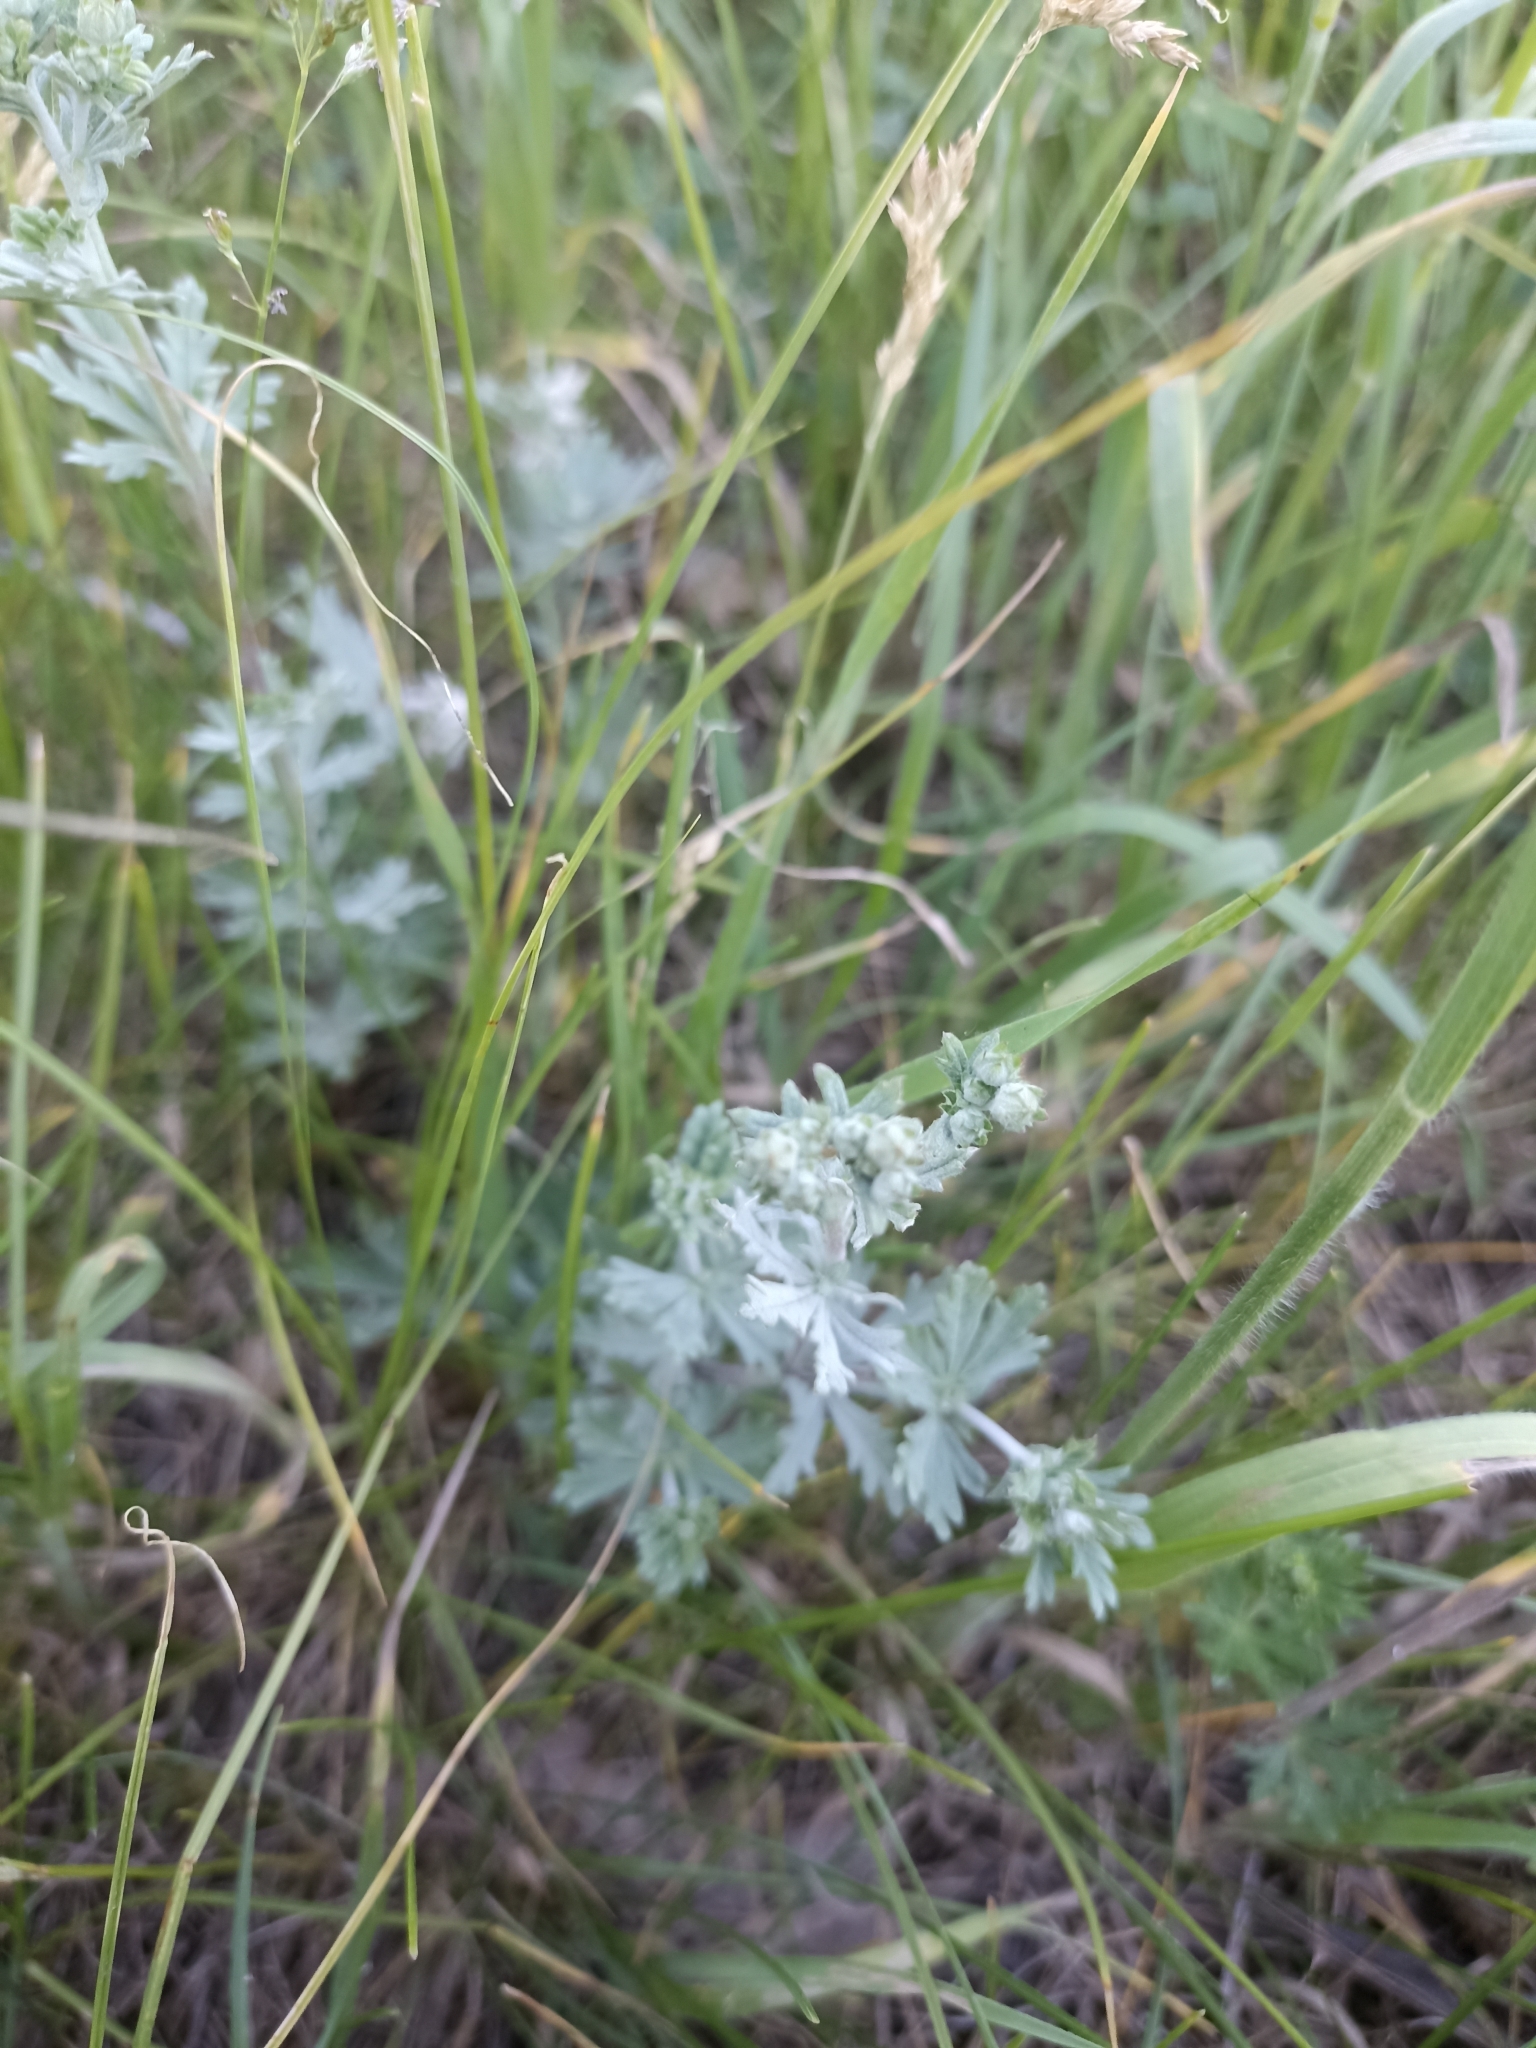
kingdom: Plantae
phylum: Tracheophyta
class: Magnoliopsida
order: Rosales
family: Rosaceae
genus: Potentilla
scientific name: Potentilla argentea
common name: Hoary cinquefoil
